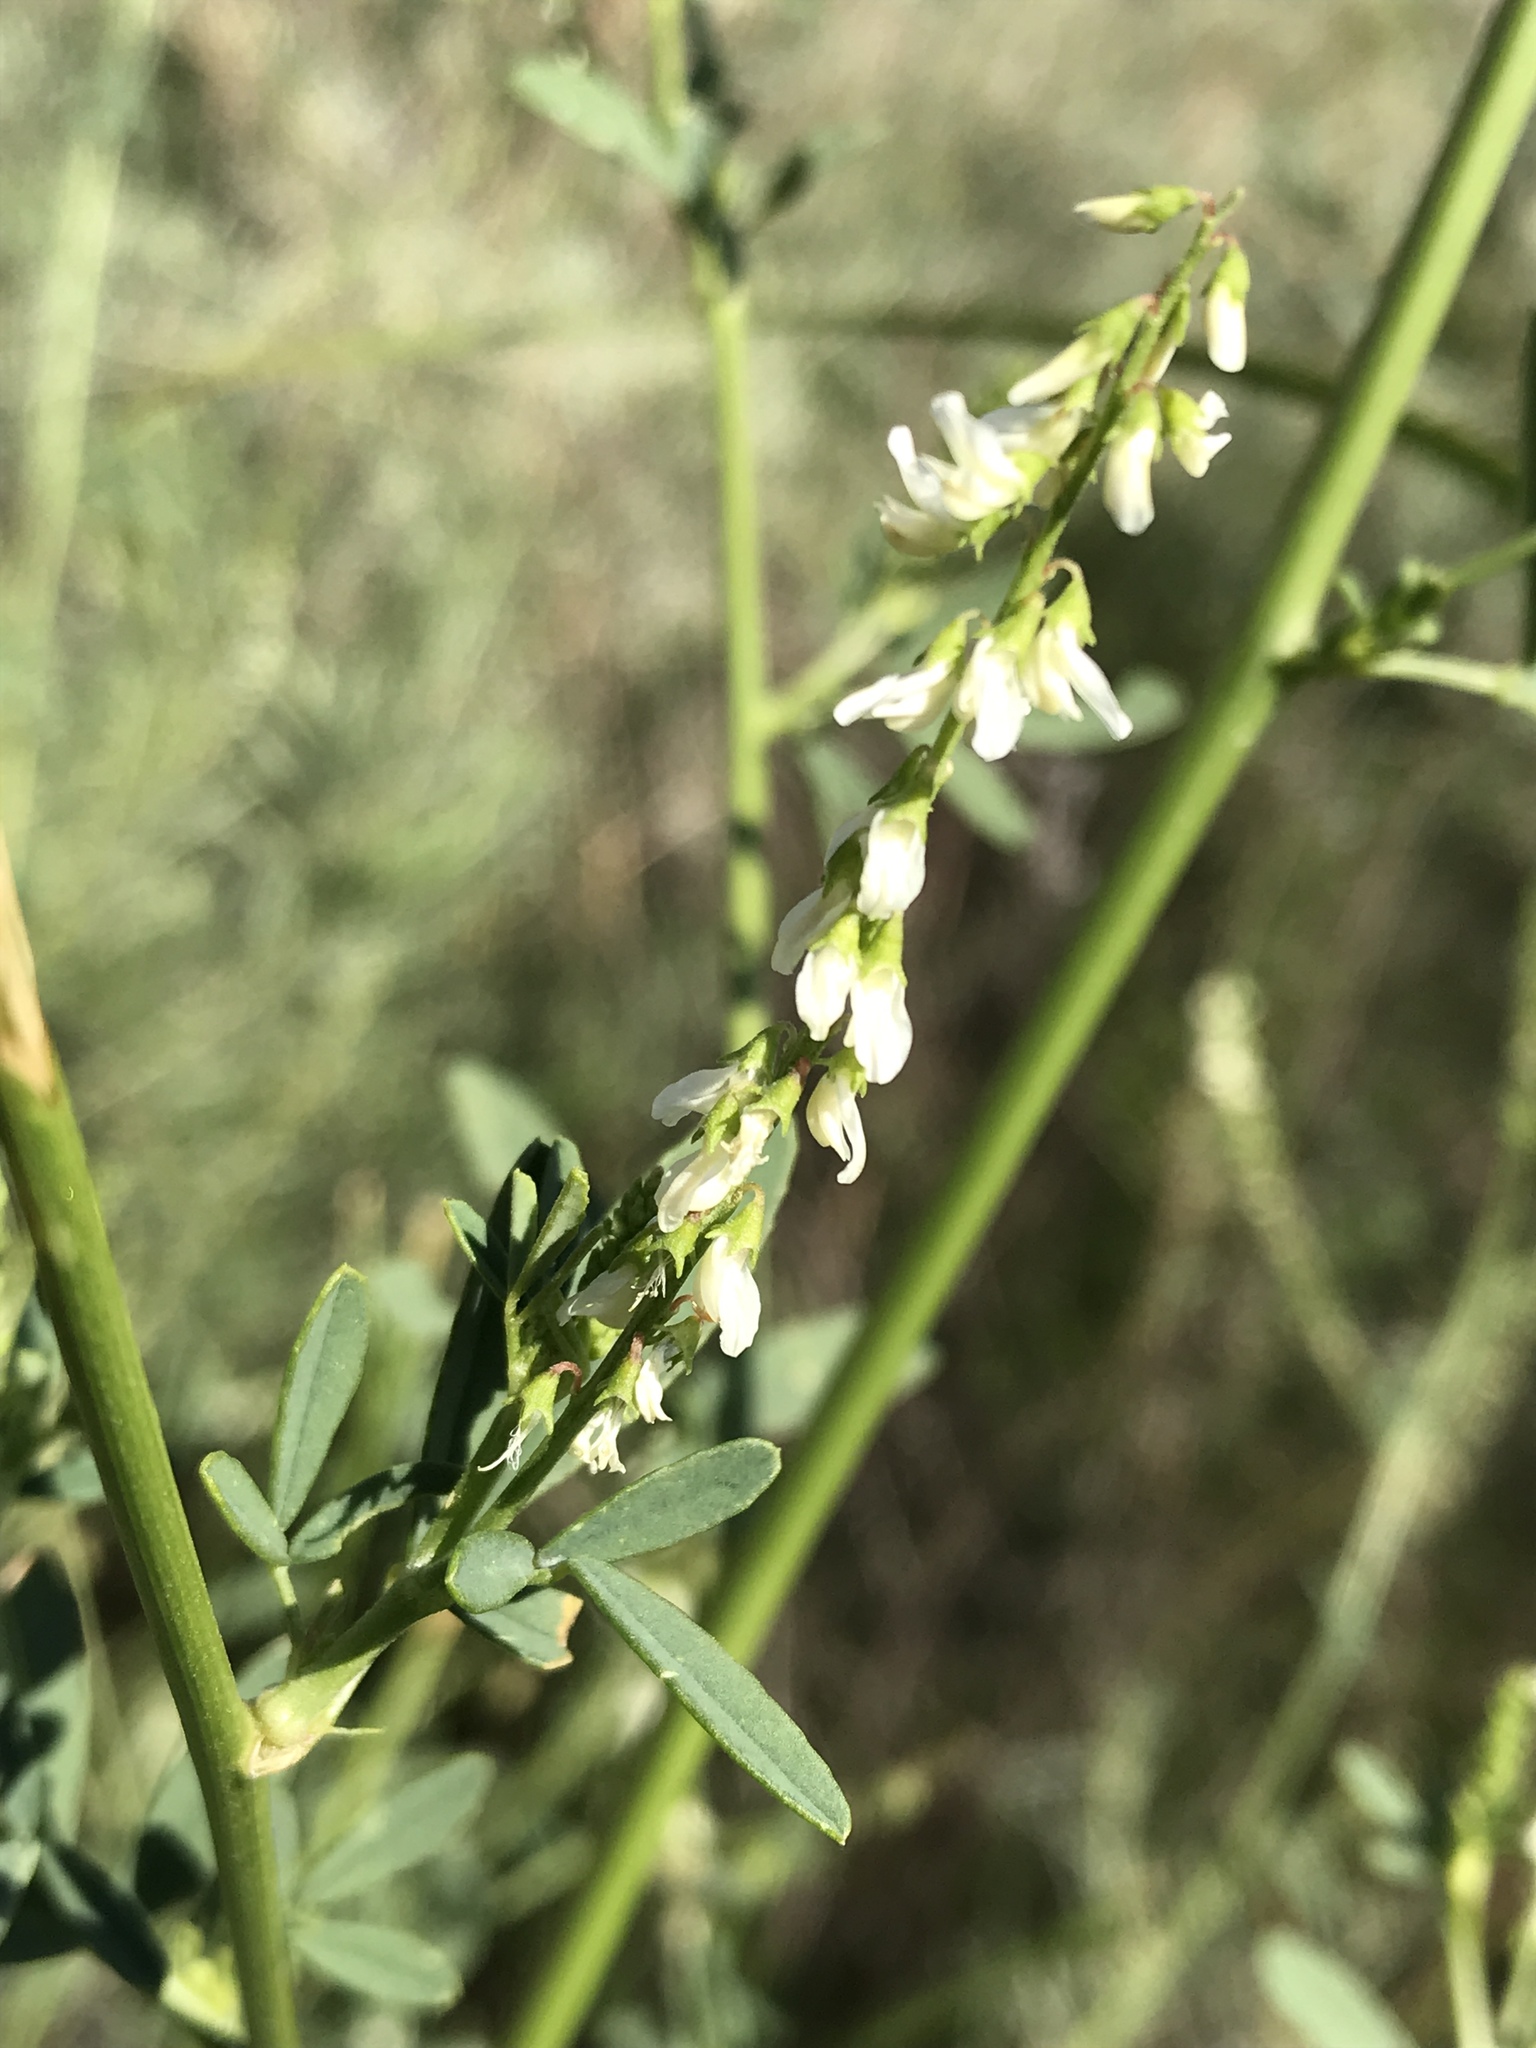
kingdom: Plantae
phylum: Tracheophyta
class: Magnoliopsida
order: Fabales
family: Fabaceae
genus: Melilotus
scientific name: Melilotus albus
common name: White melilot
